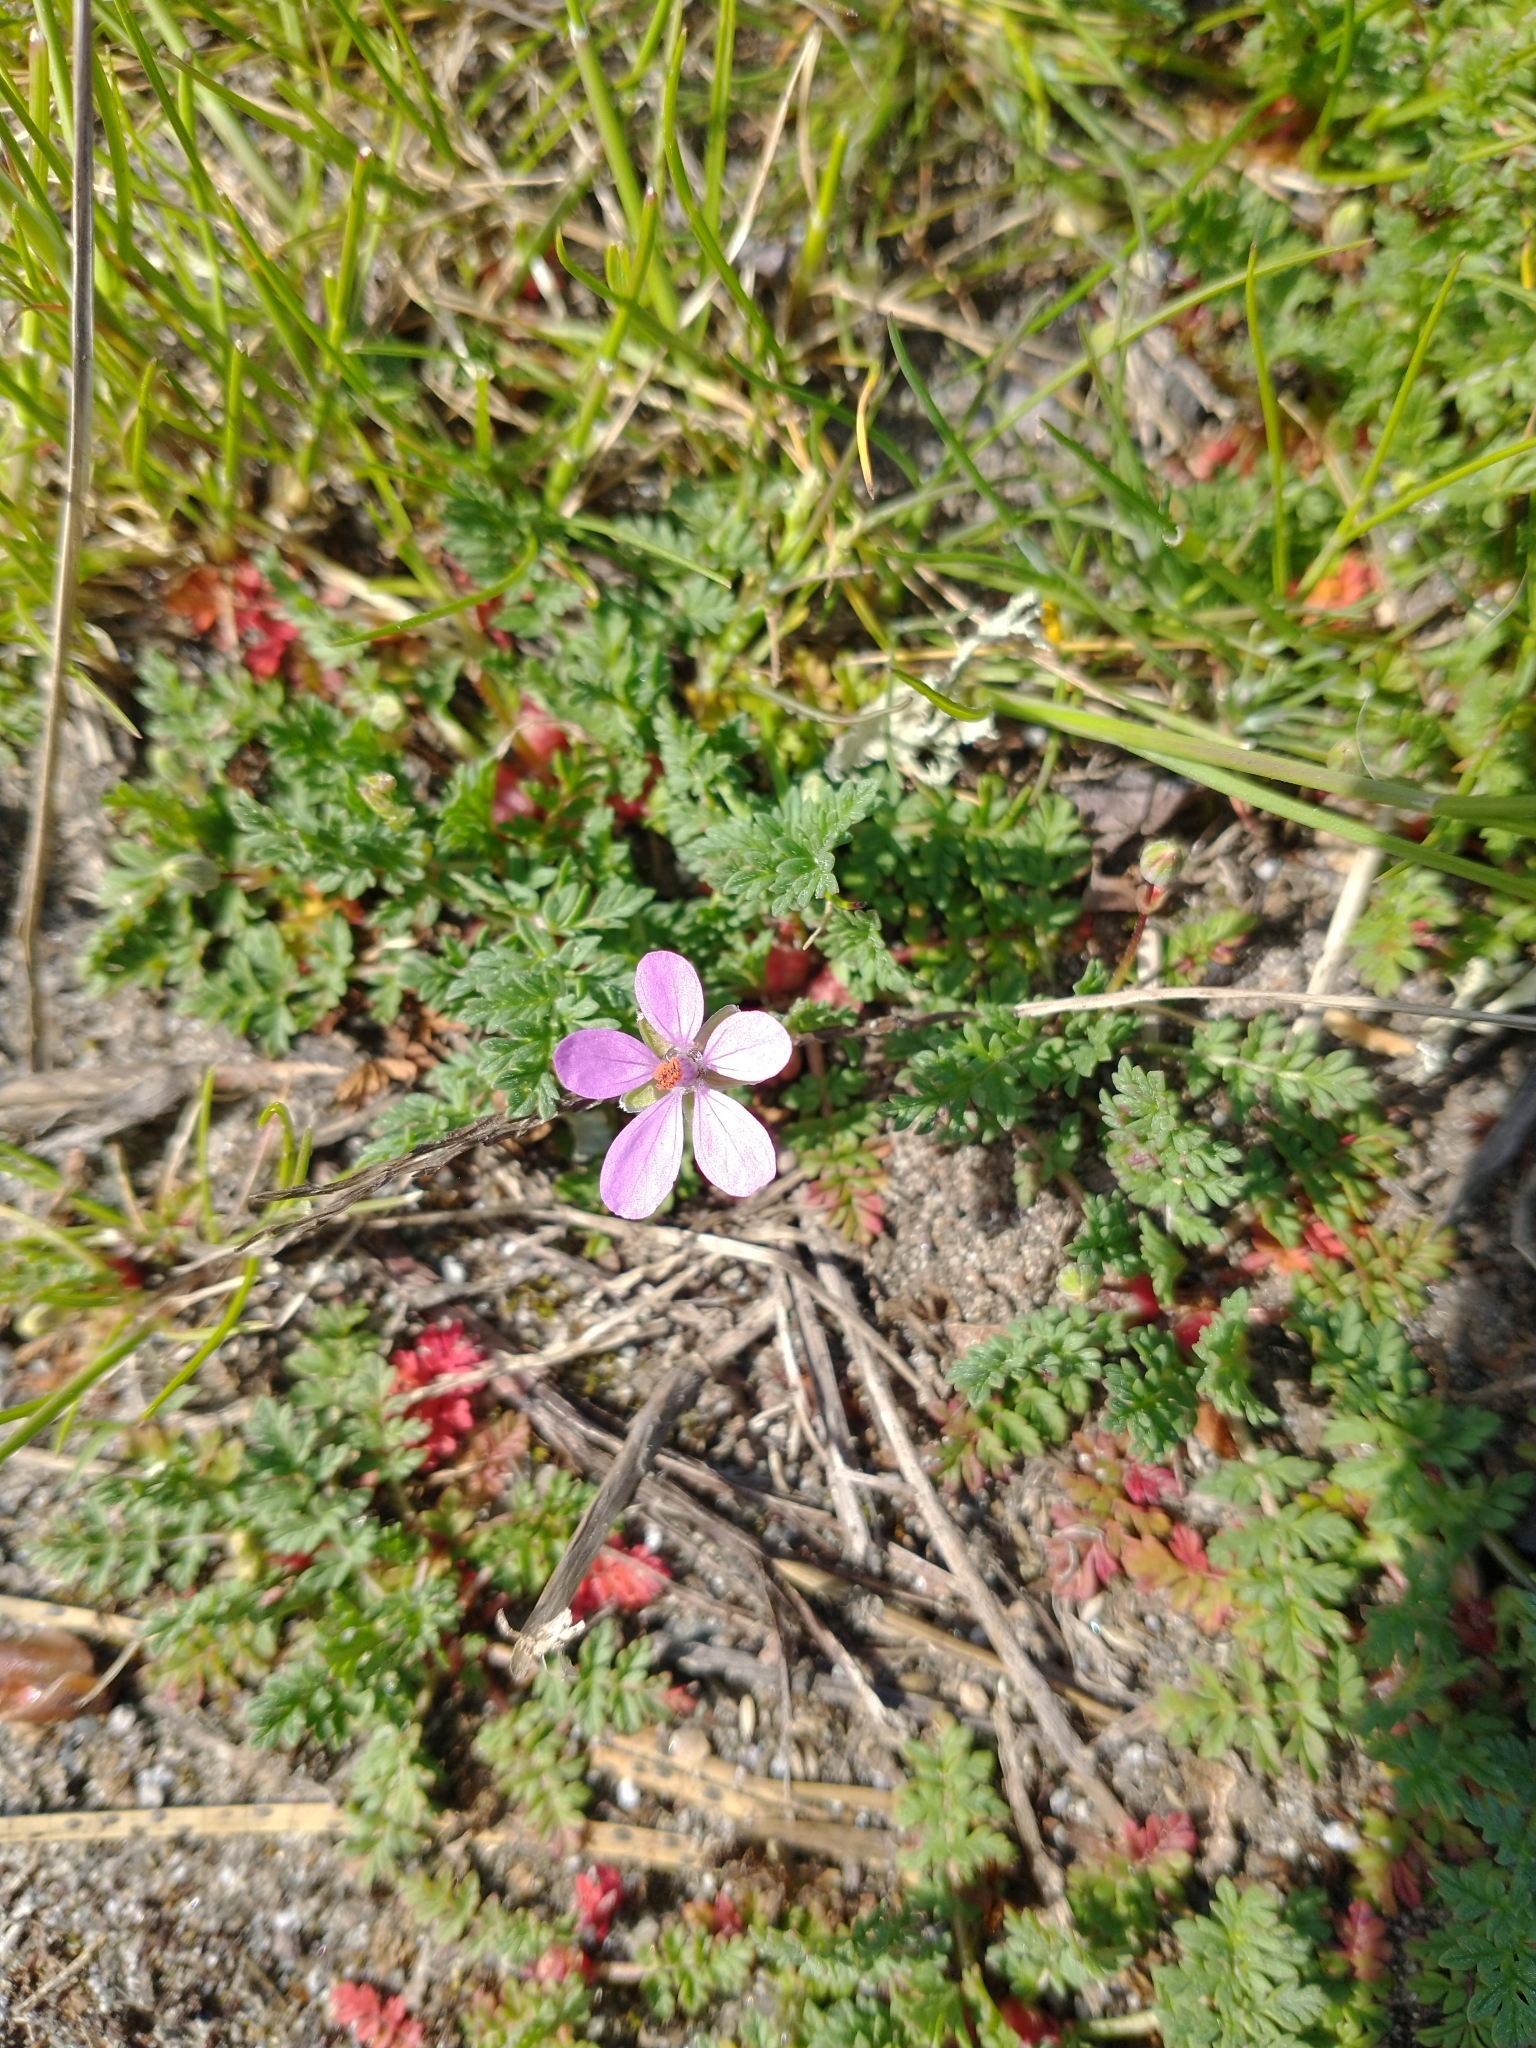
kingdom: Plantae
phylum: Tracheophyta
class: Magnoliopsida
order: Geraniales
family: Geraniaceae
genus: Erodium
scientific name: Erodium cicutarium
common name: Common stork's-bill
